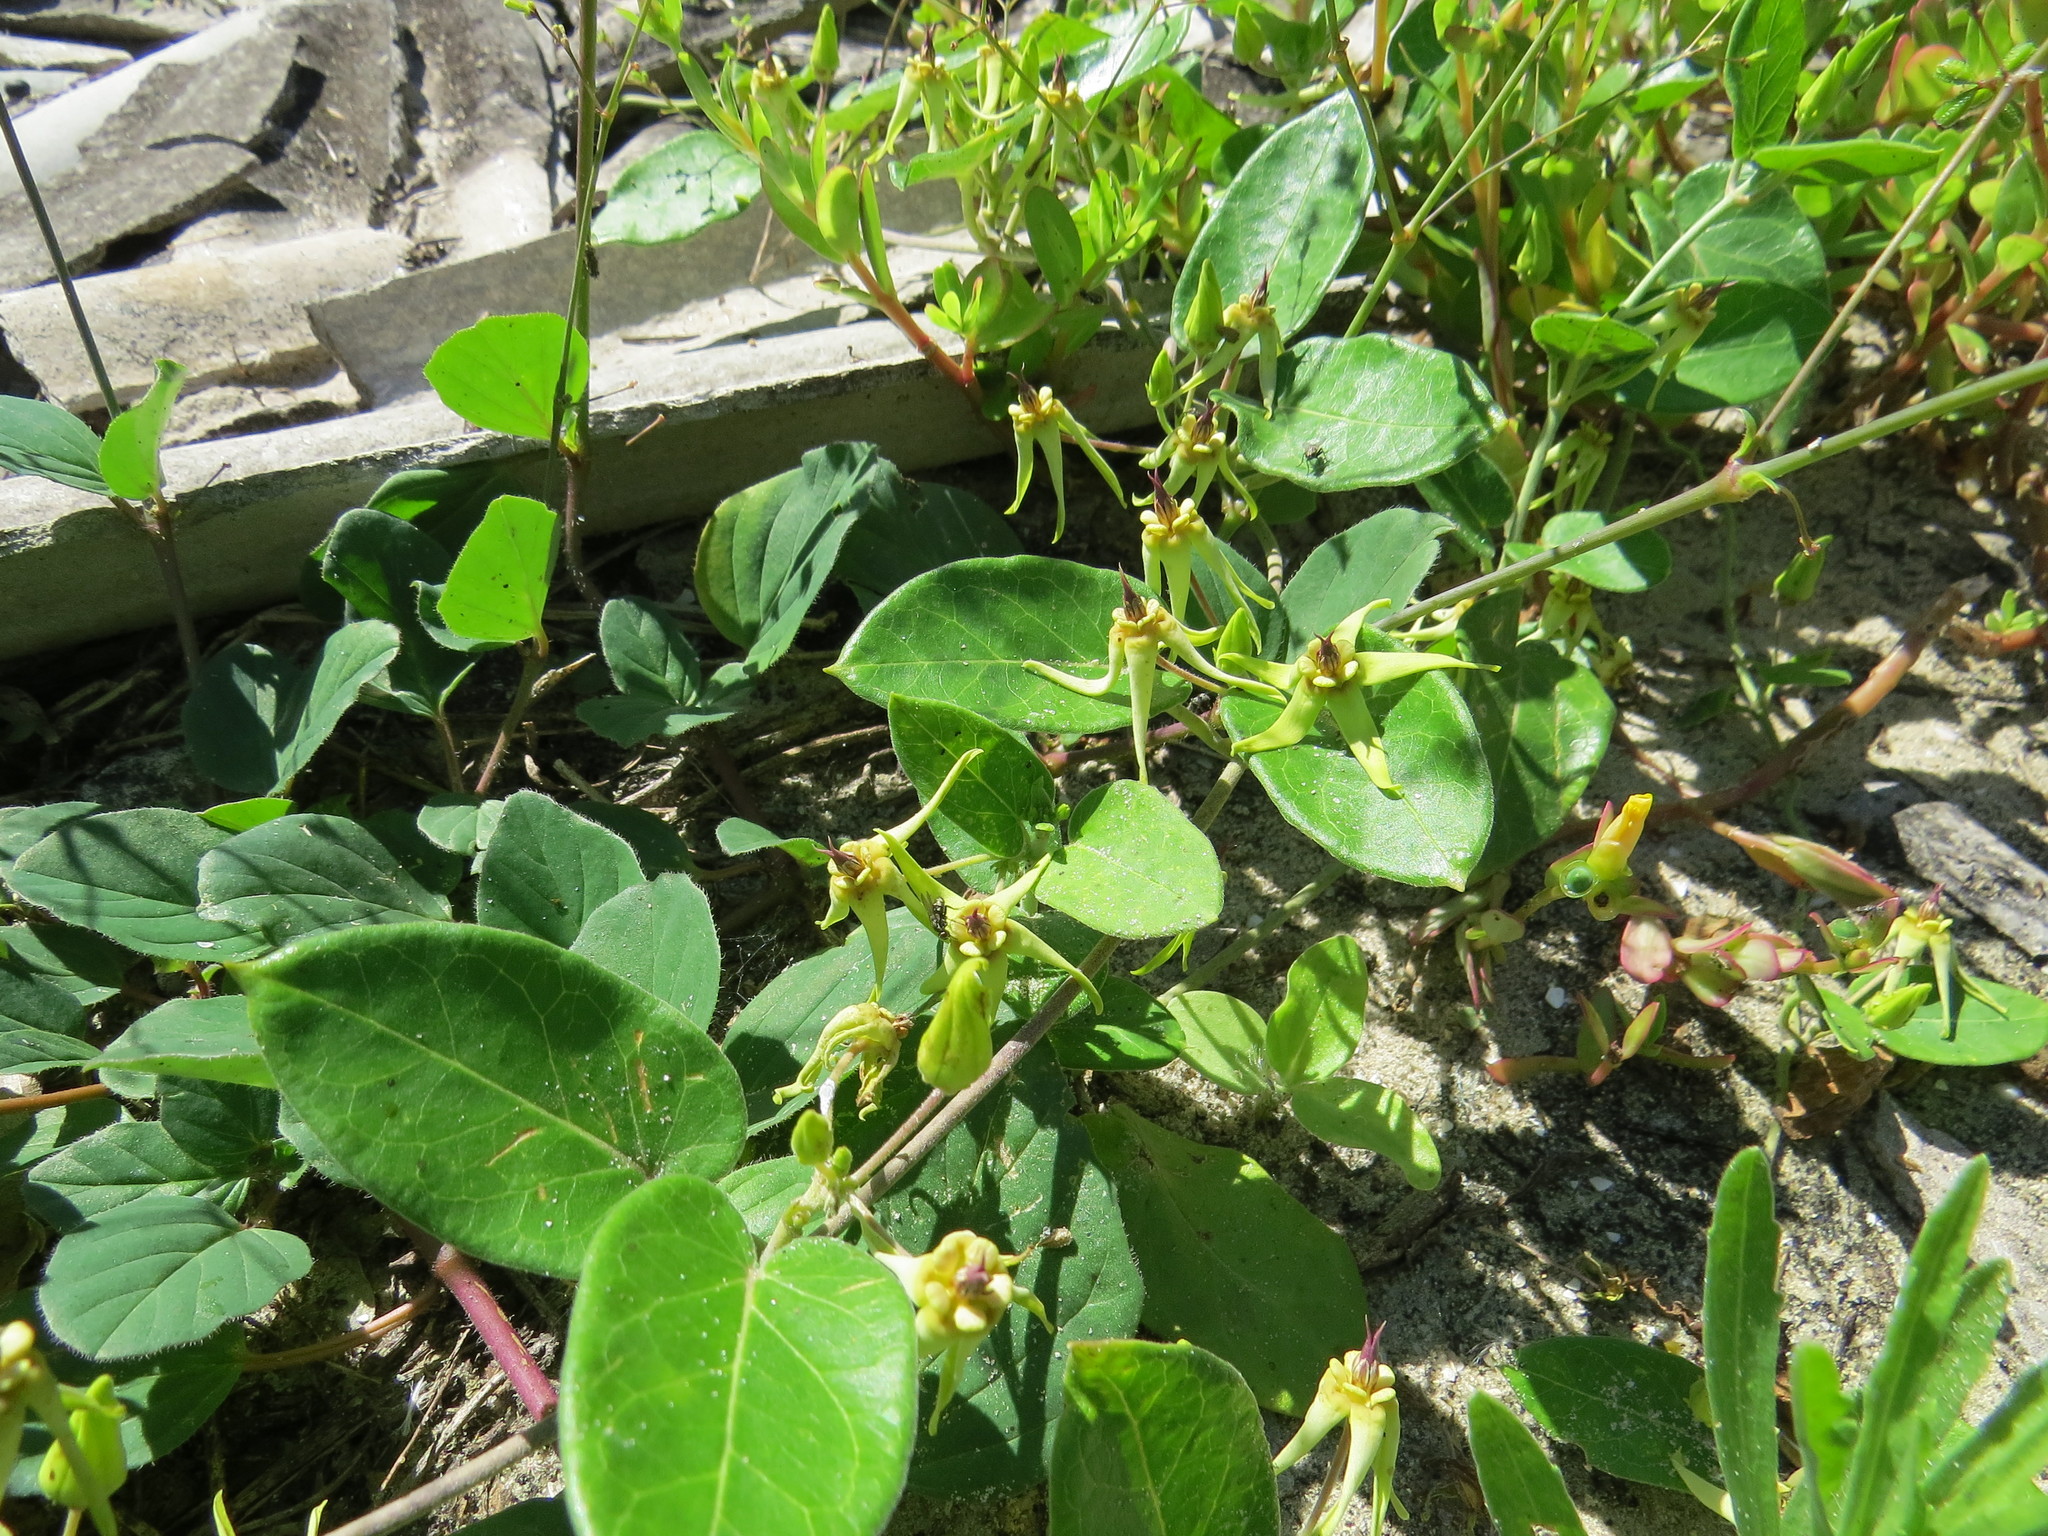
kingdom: Plantae
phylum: Tracheophyta
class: Magnoliopsida
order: Gentianales
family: Apocynaceae
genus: Oxypetalum
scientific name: Oxypetalum banksii
